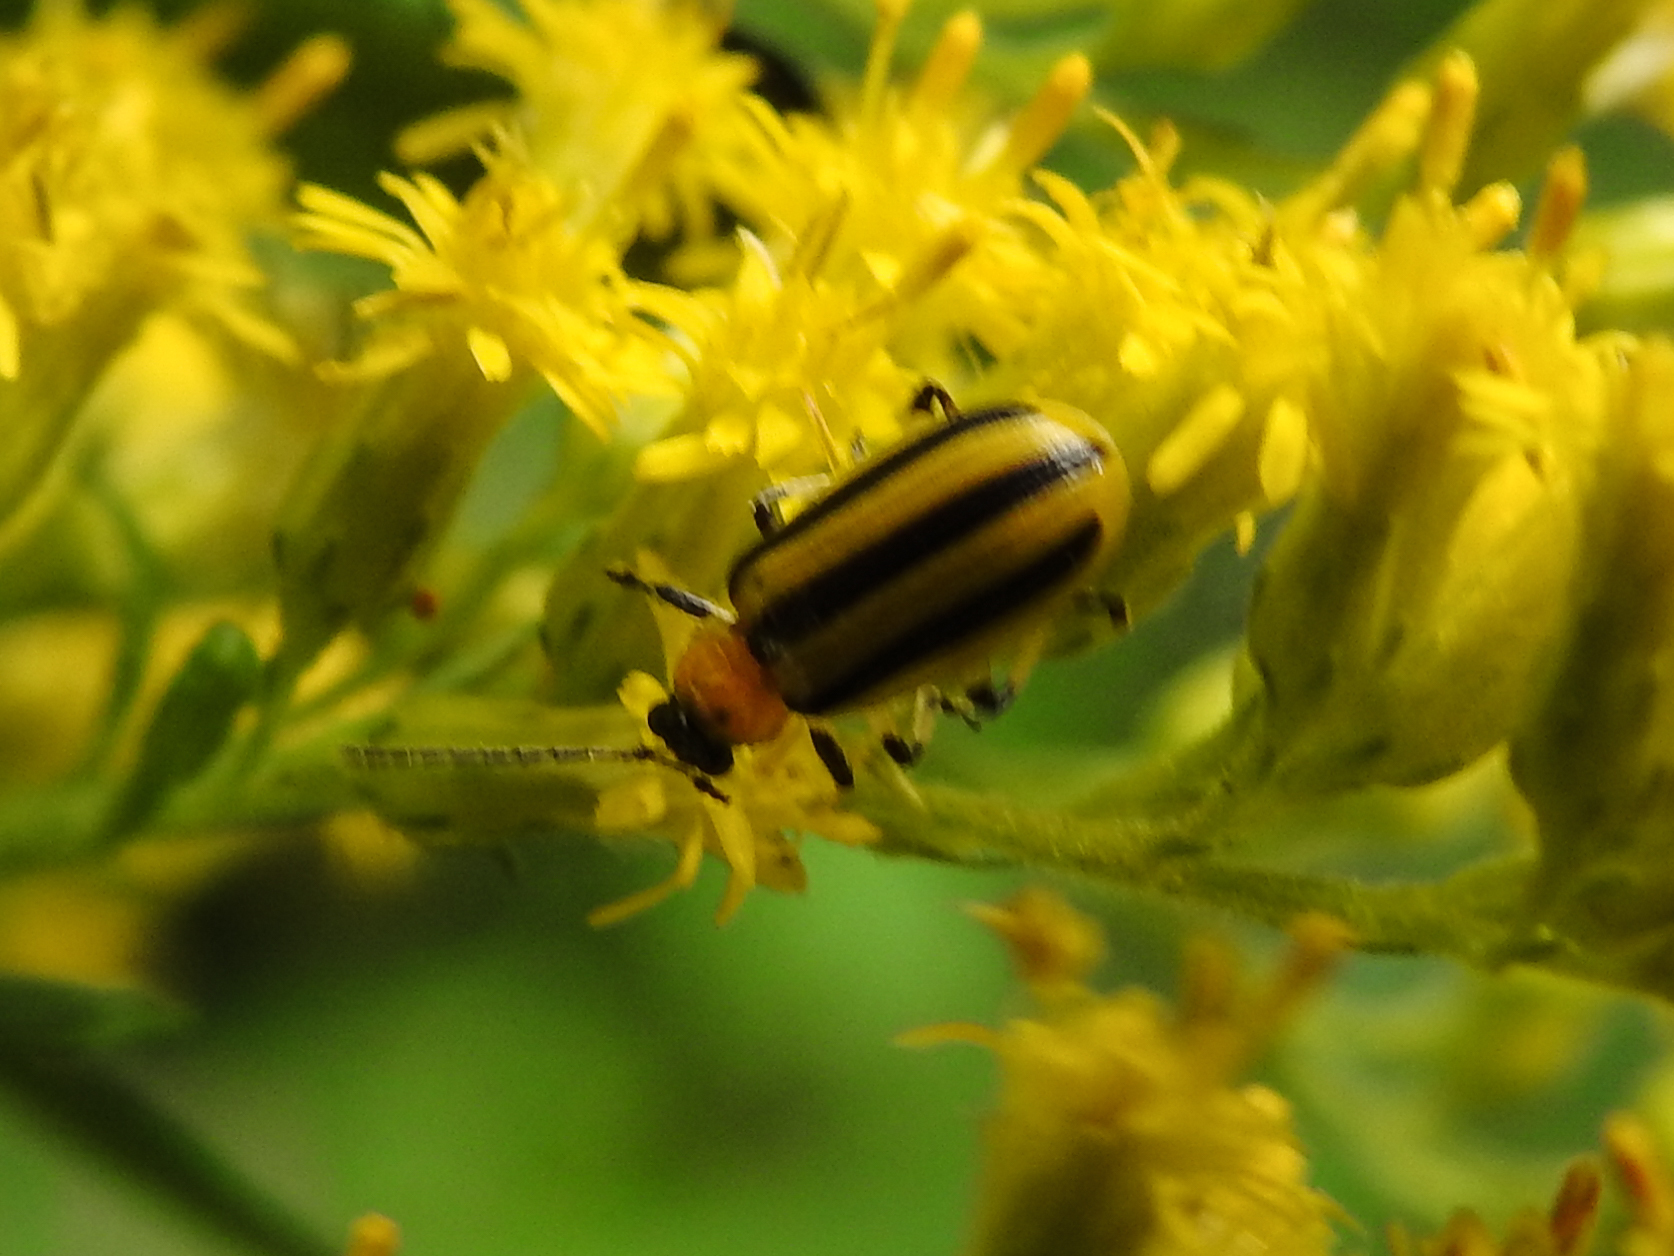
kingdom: Animalia
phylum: Arthropoda
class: Insecta
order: Coleoptera
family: Chrysomelidae
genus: Acalymma
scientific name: Acalymma vittatum
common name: Striped cucumber beetle
